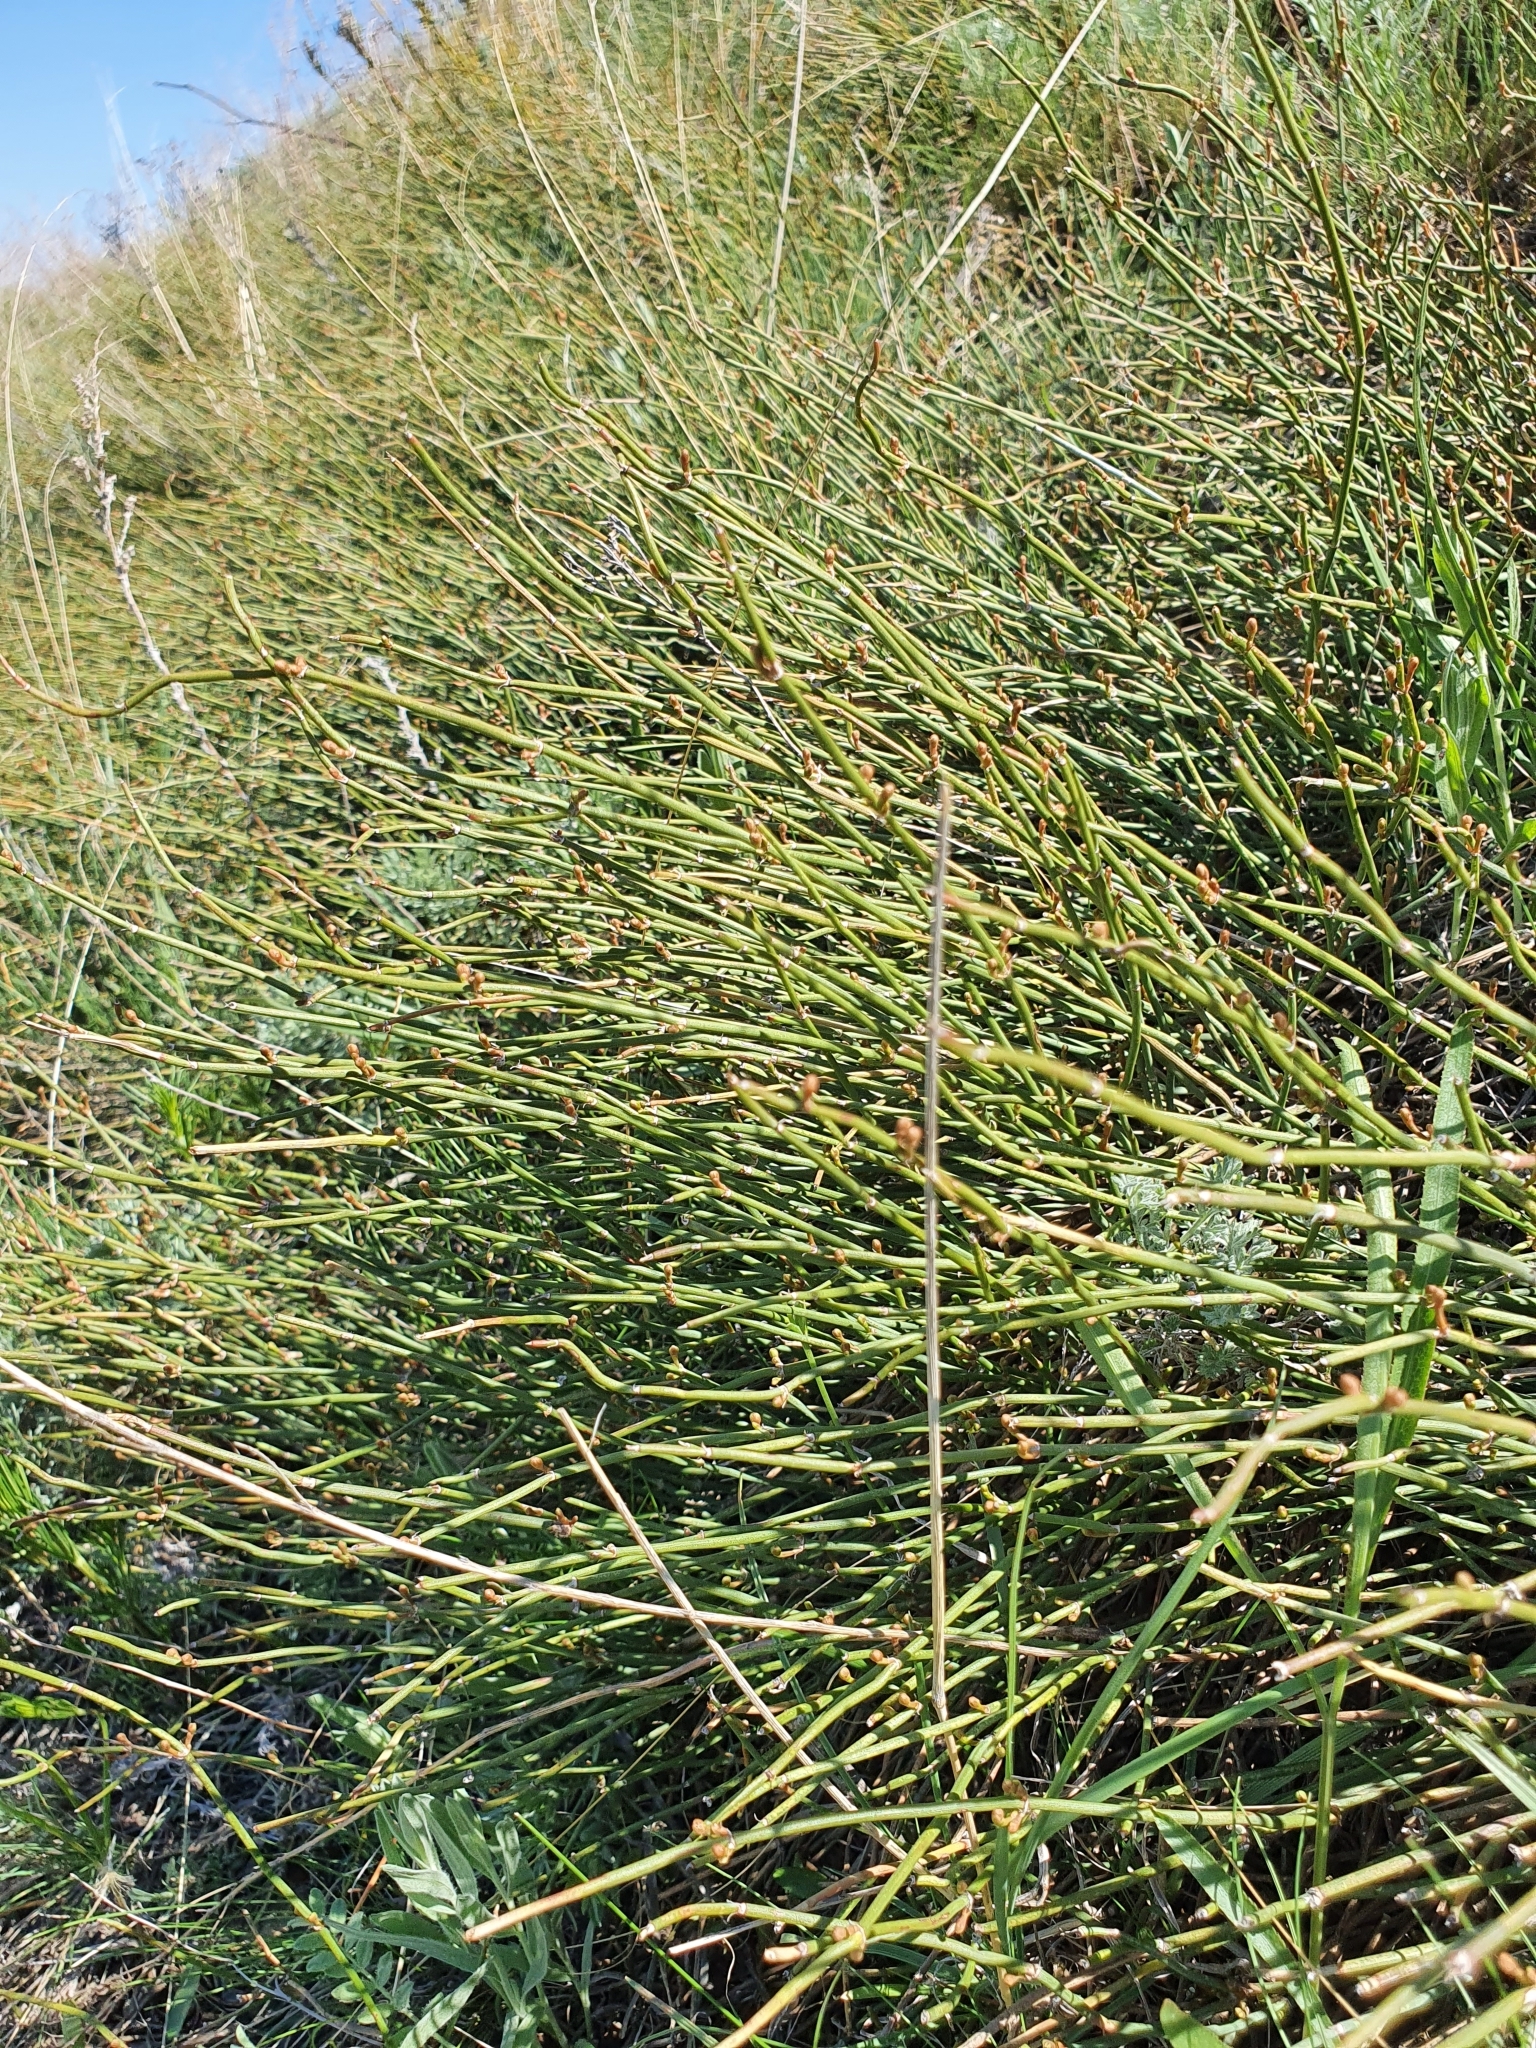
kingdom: Plantae
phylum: Tracheophyta
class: Gnetopsida
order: Ephedrales
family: Ephedraceae
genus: Ephedra
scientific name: Ephedra distachya
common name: Sea grape
